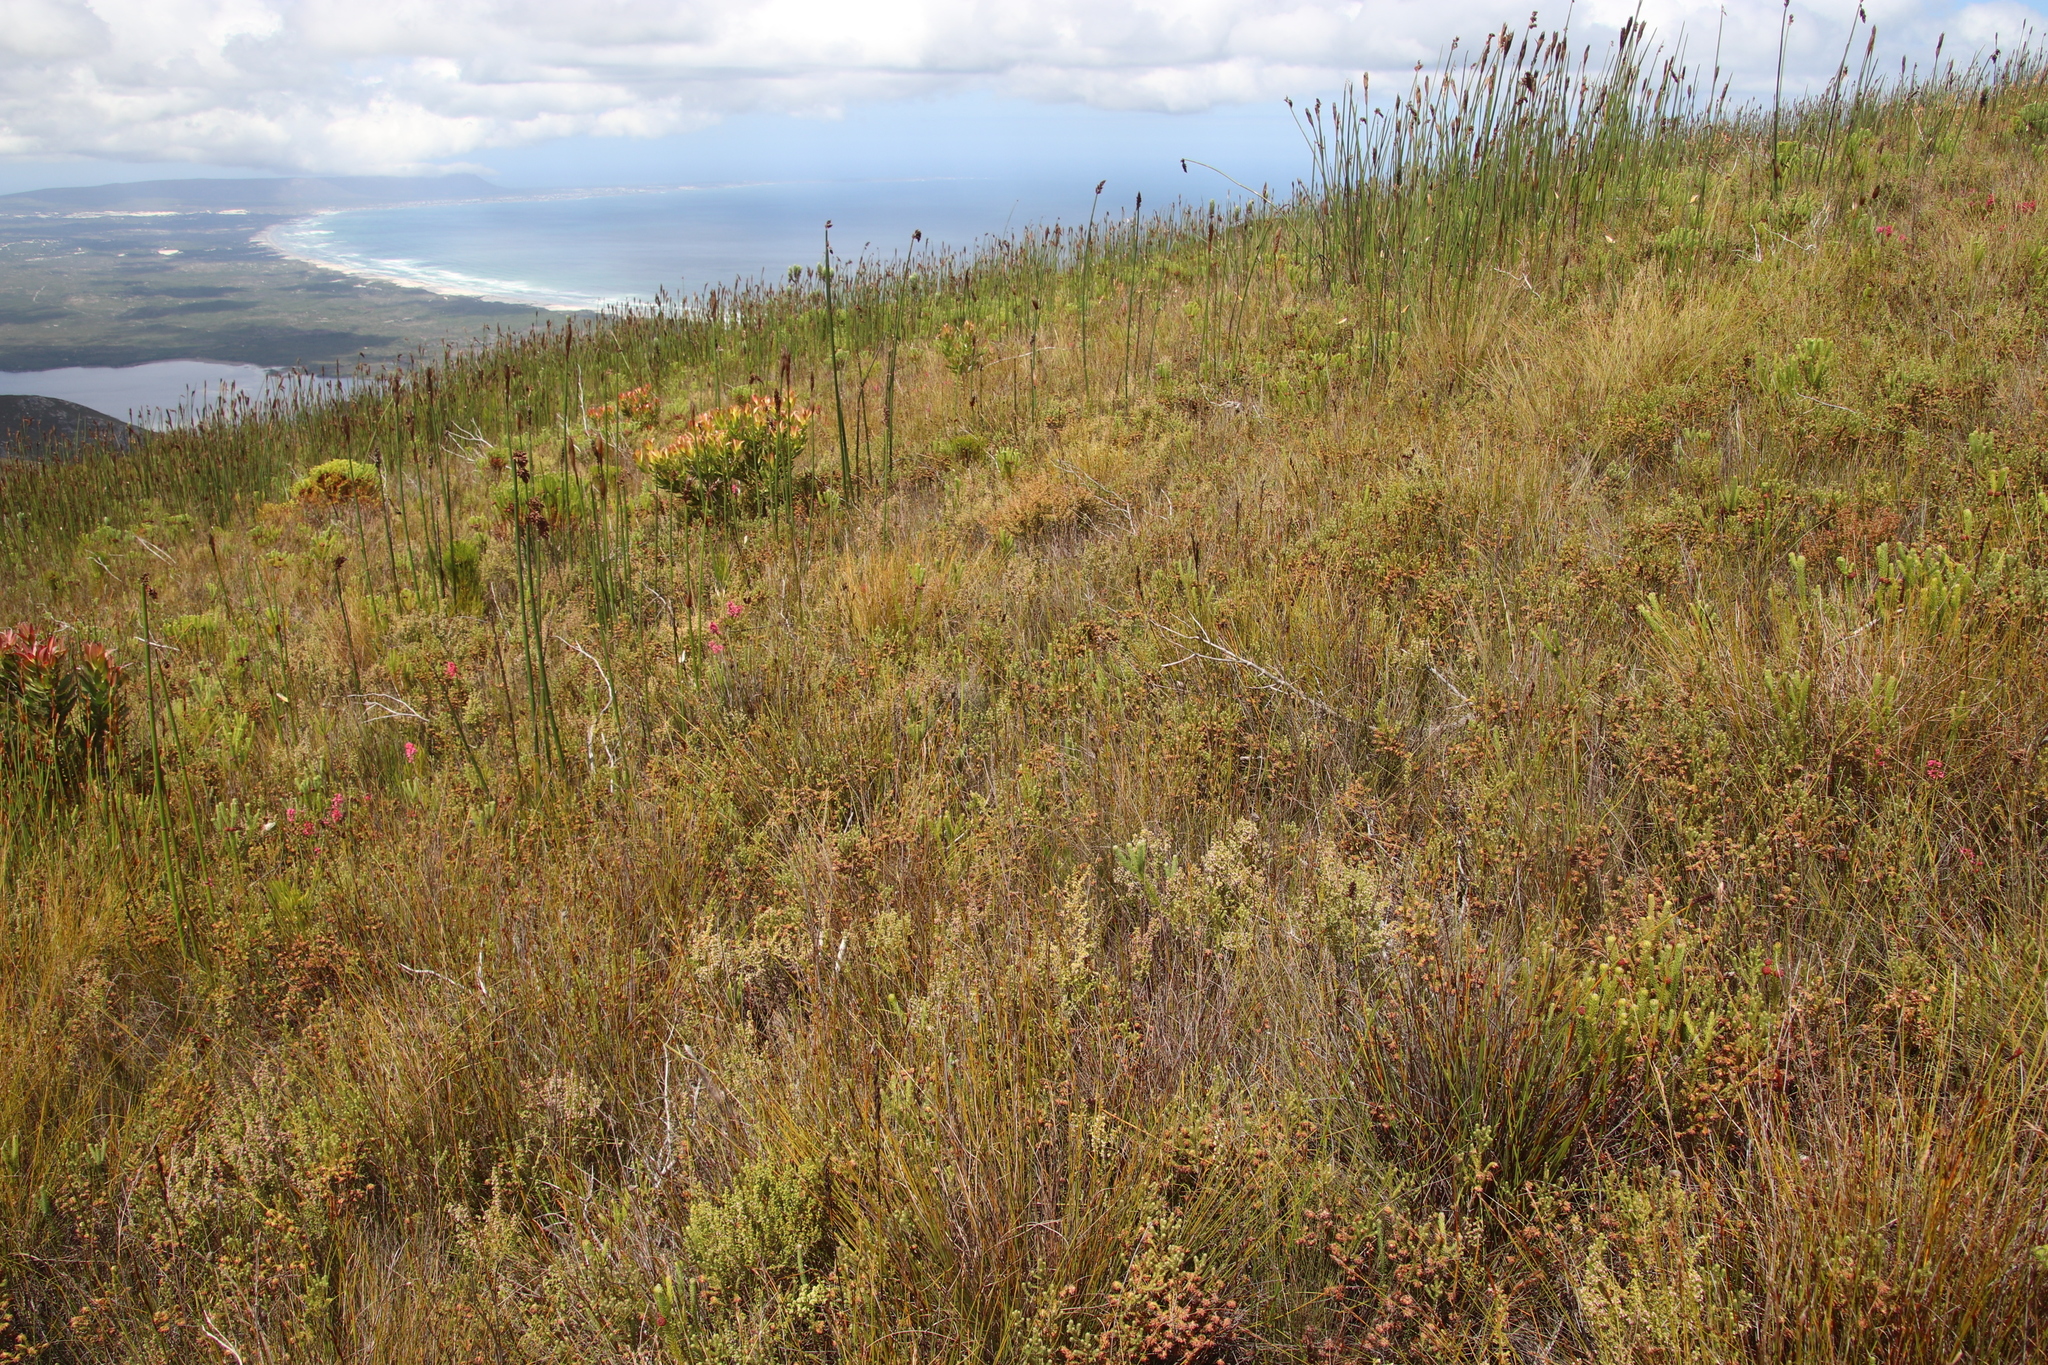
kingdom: Plantae
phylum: Tracheophyta
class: Magnoliopsida
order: Ericales
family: Ericaceae
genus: Erica
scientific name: Erica hispidula
